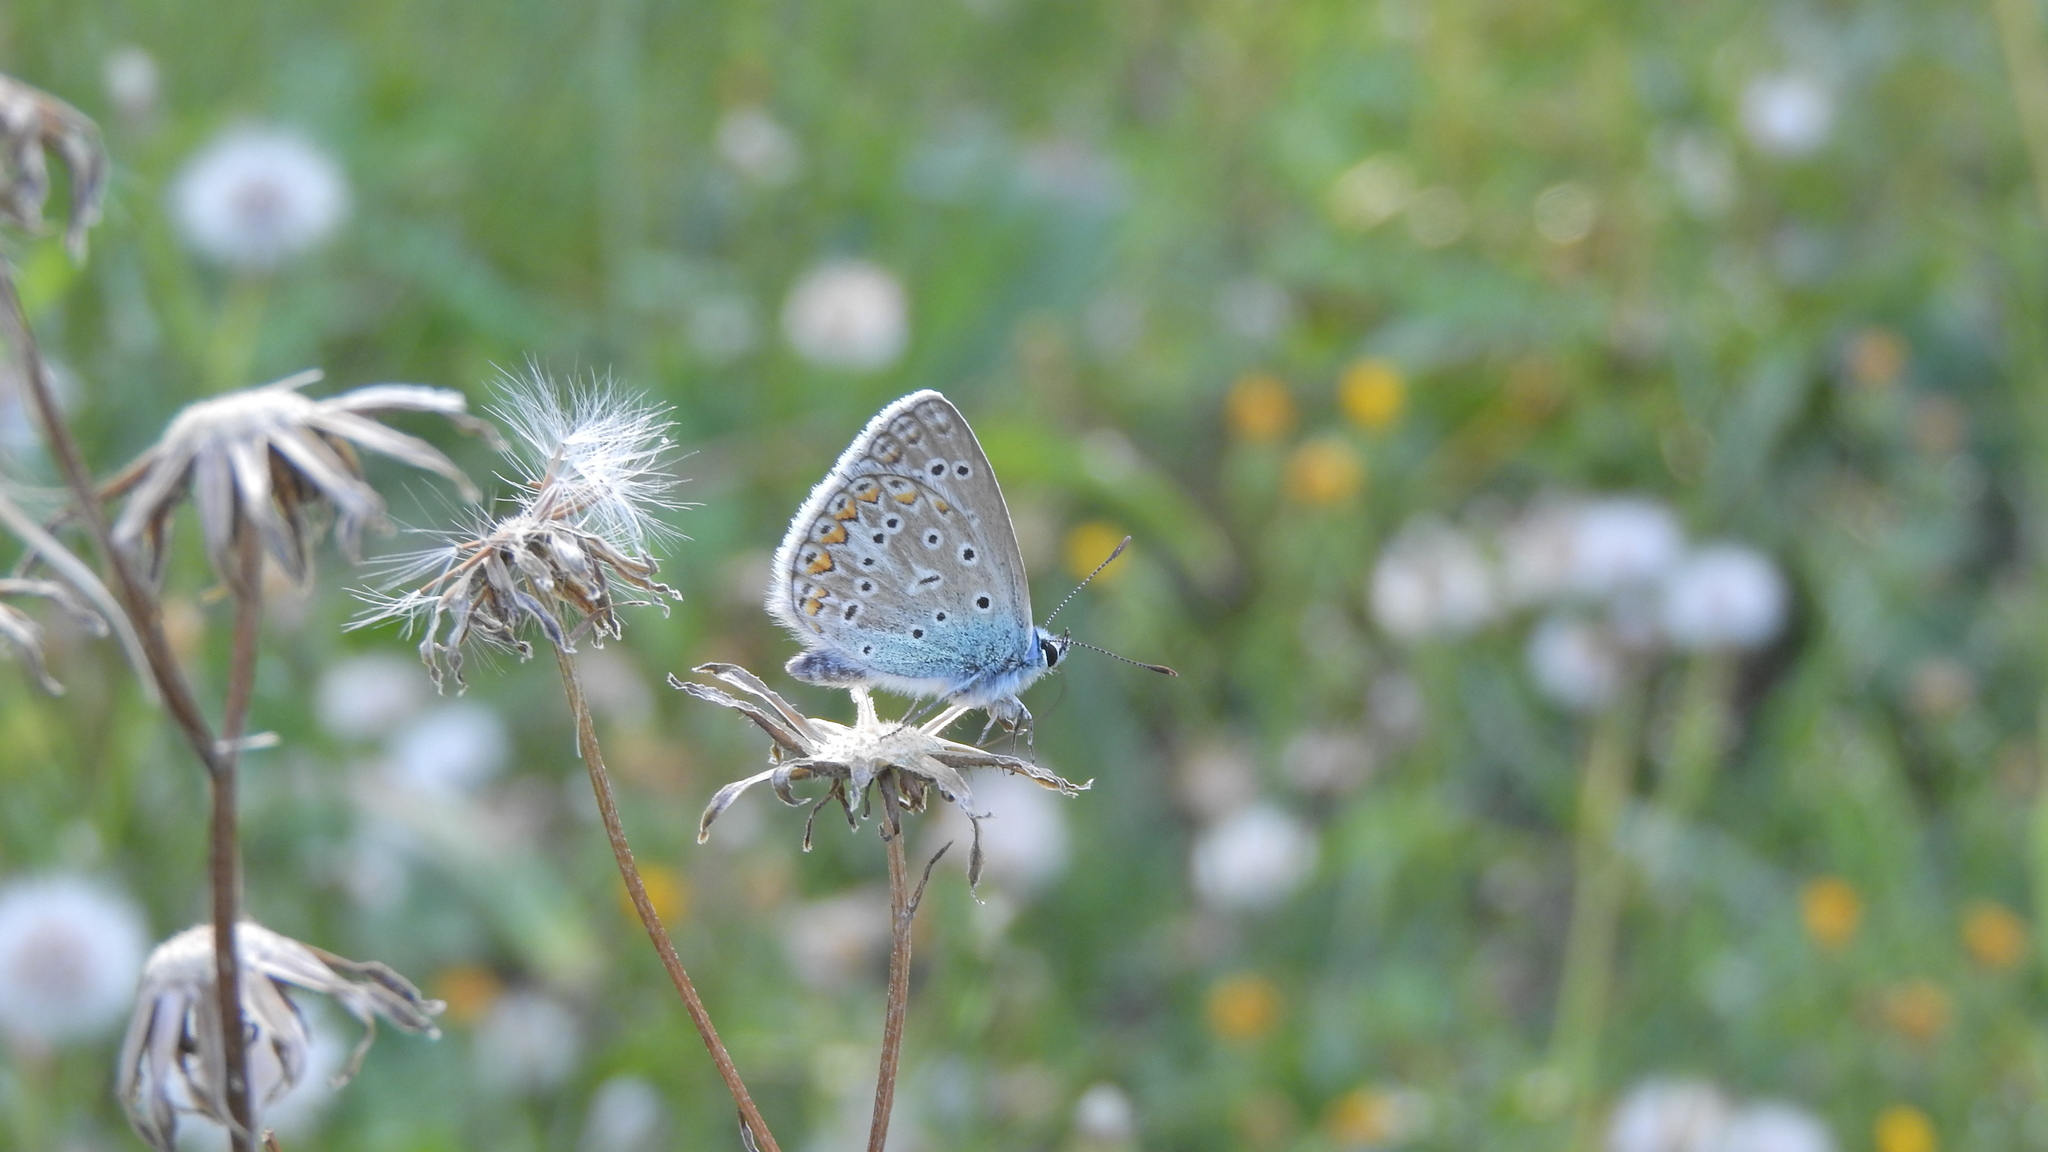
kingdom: Animalia
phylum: Arthropoda
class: Insecta
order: Lepidoptera
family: Lycaenidae
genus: Polyommatus
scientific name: Polyommatus icarus
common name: Common blue
